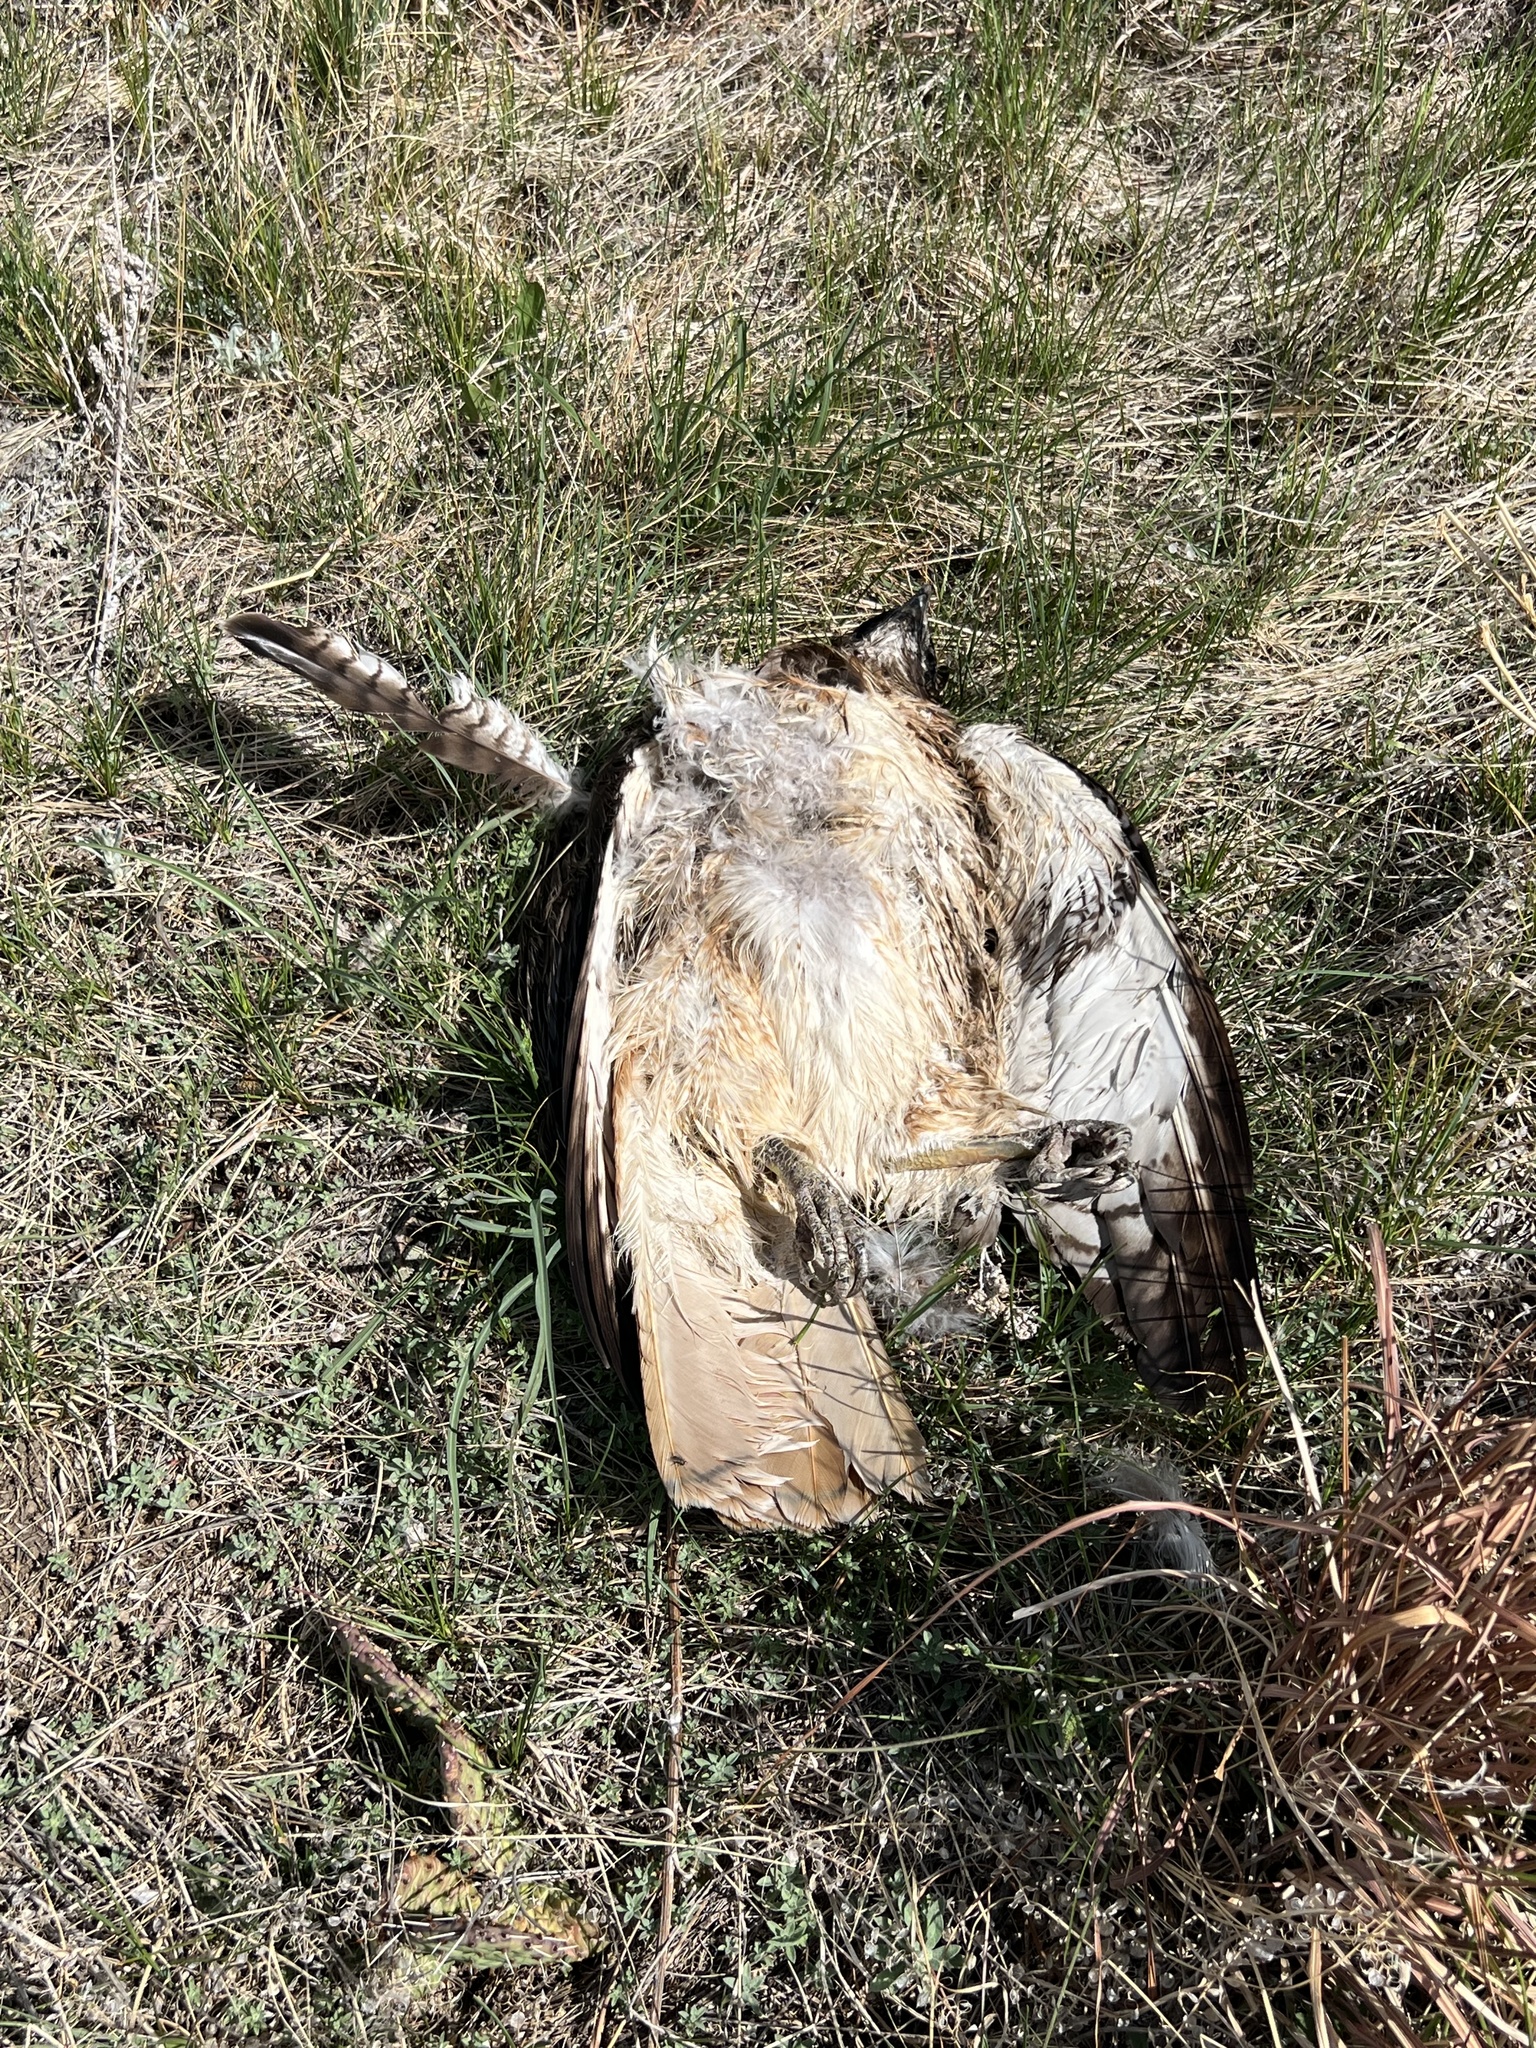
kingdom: Animalia
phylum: Chordata
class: Aves
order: Accipitriformes
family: Accipitridae
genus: Buteo
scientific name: Buteo jamaicensis
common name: Red-tailed hawk
